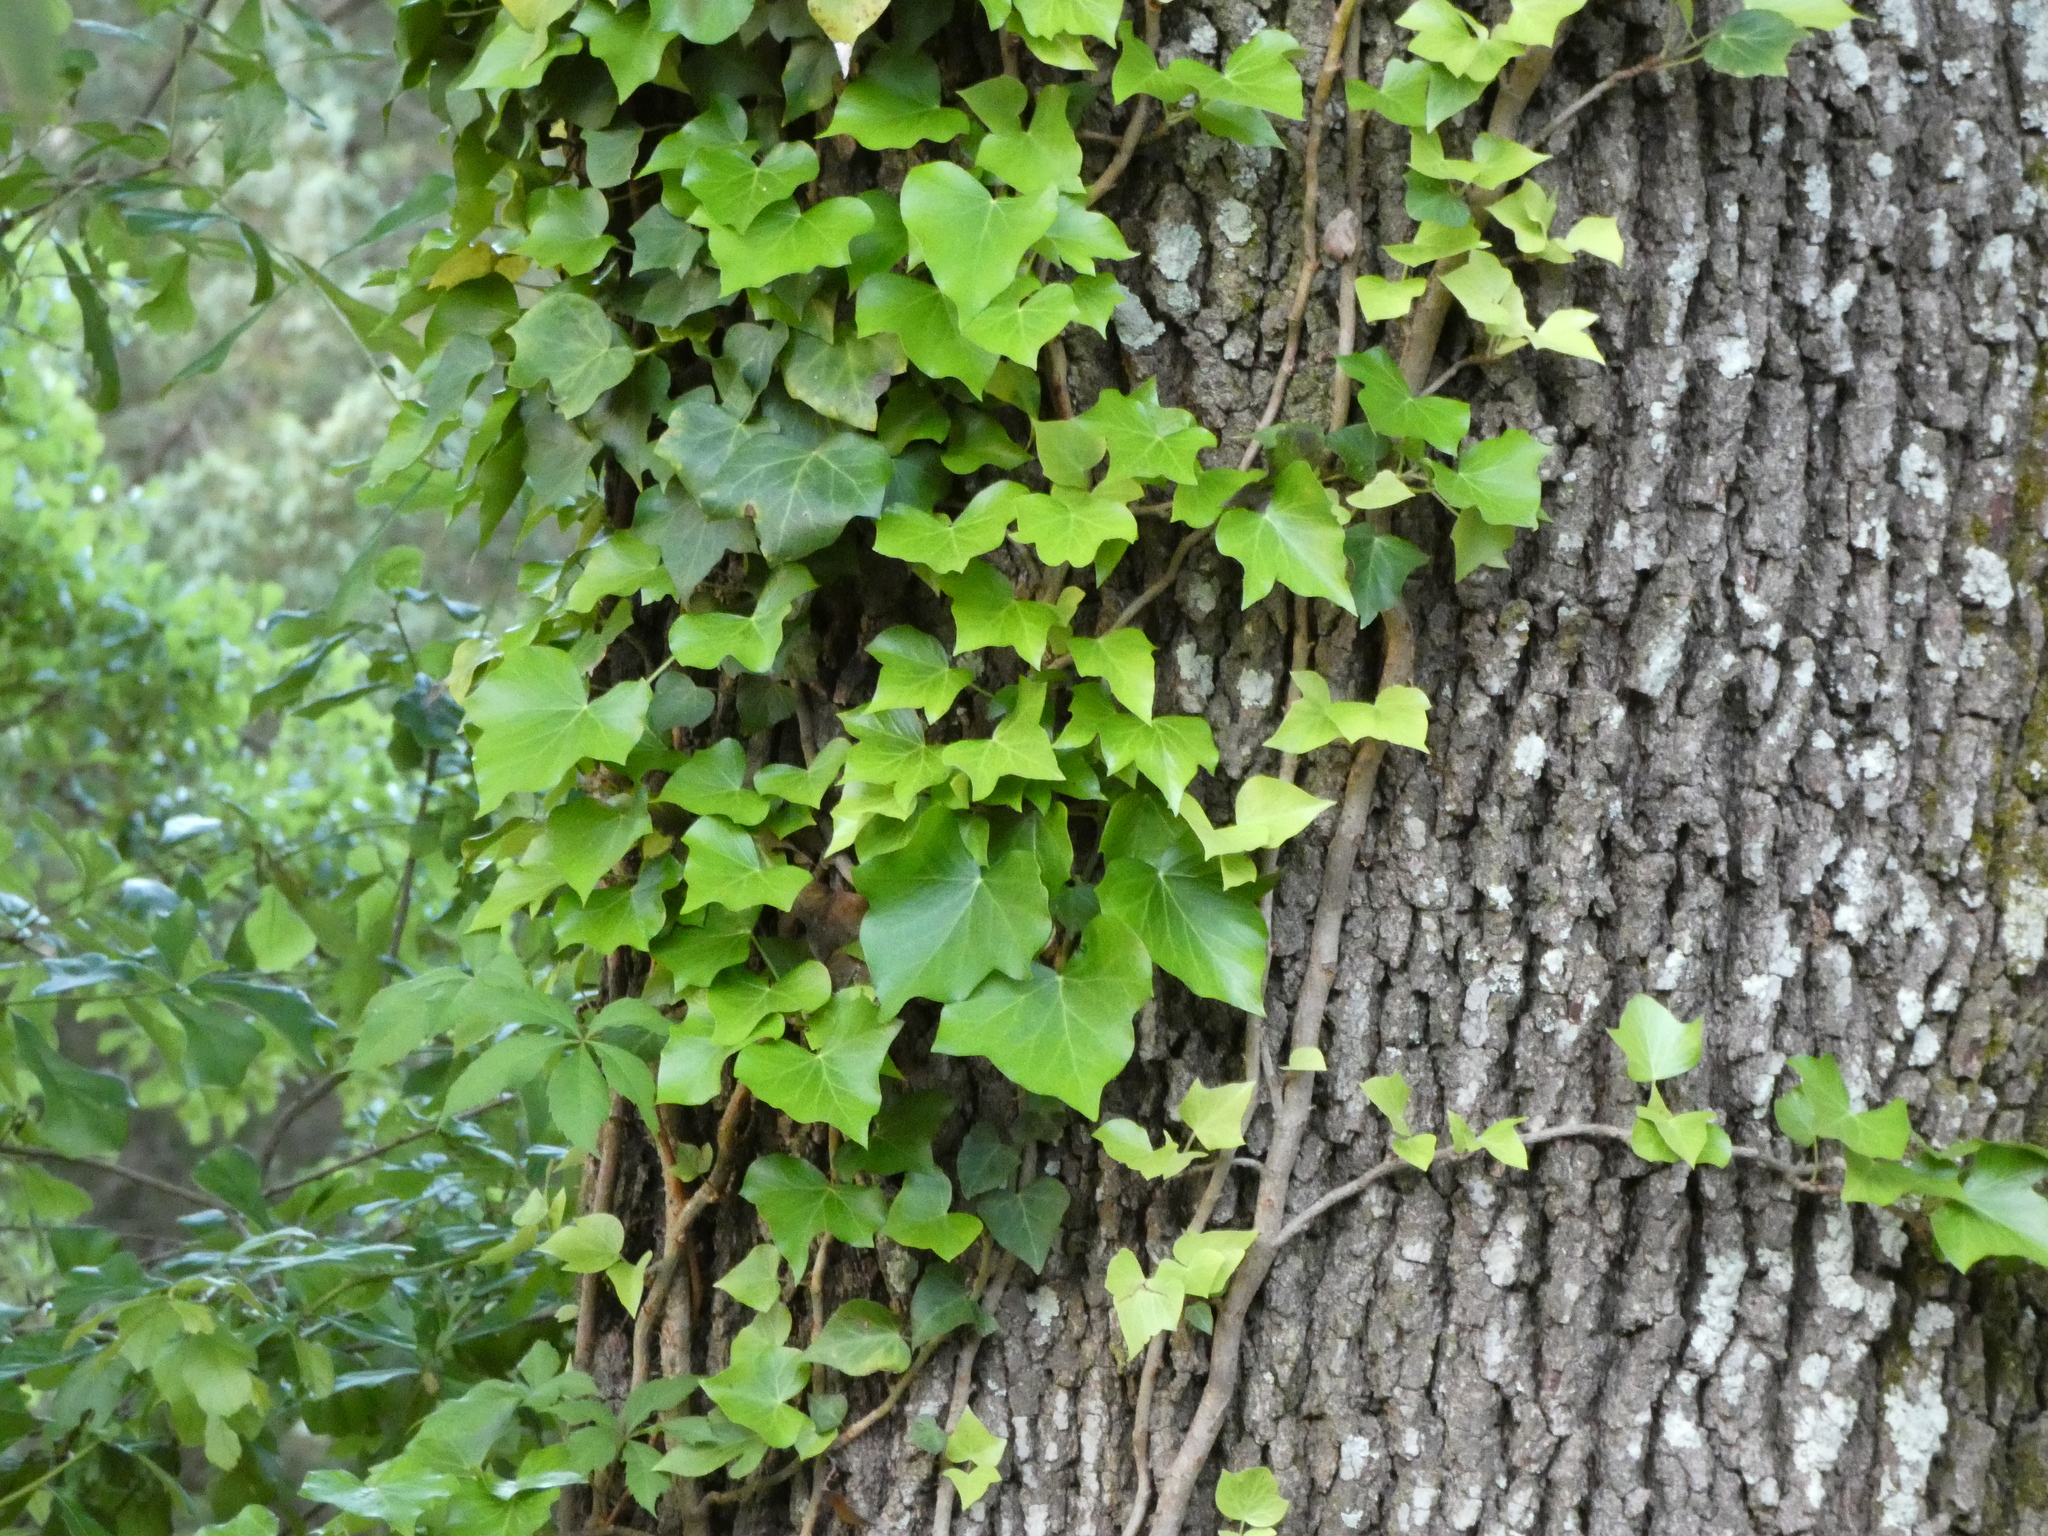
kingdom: Plantae
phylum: Tracheophyta
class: Magnoliopsida
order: Apiales
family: Araliaceae
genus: Hedera
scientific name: Hedera helix
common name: Ivy
